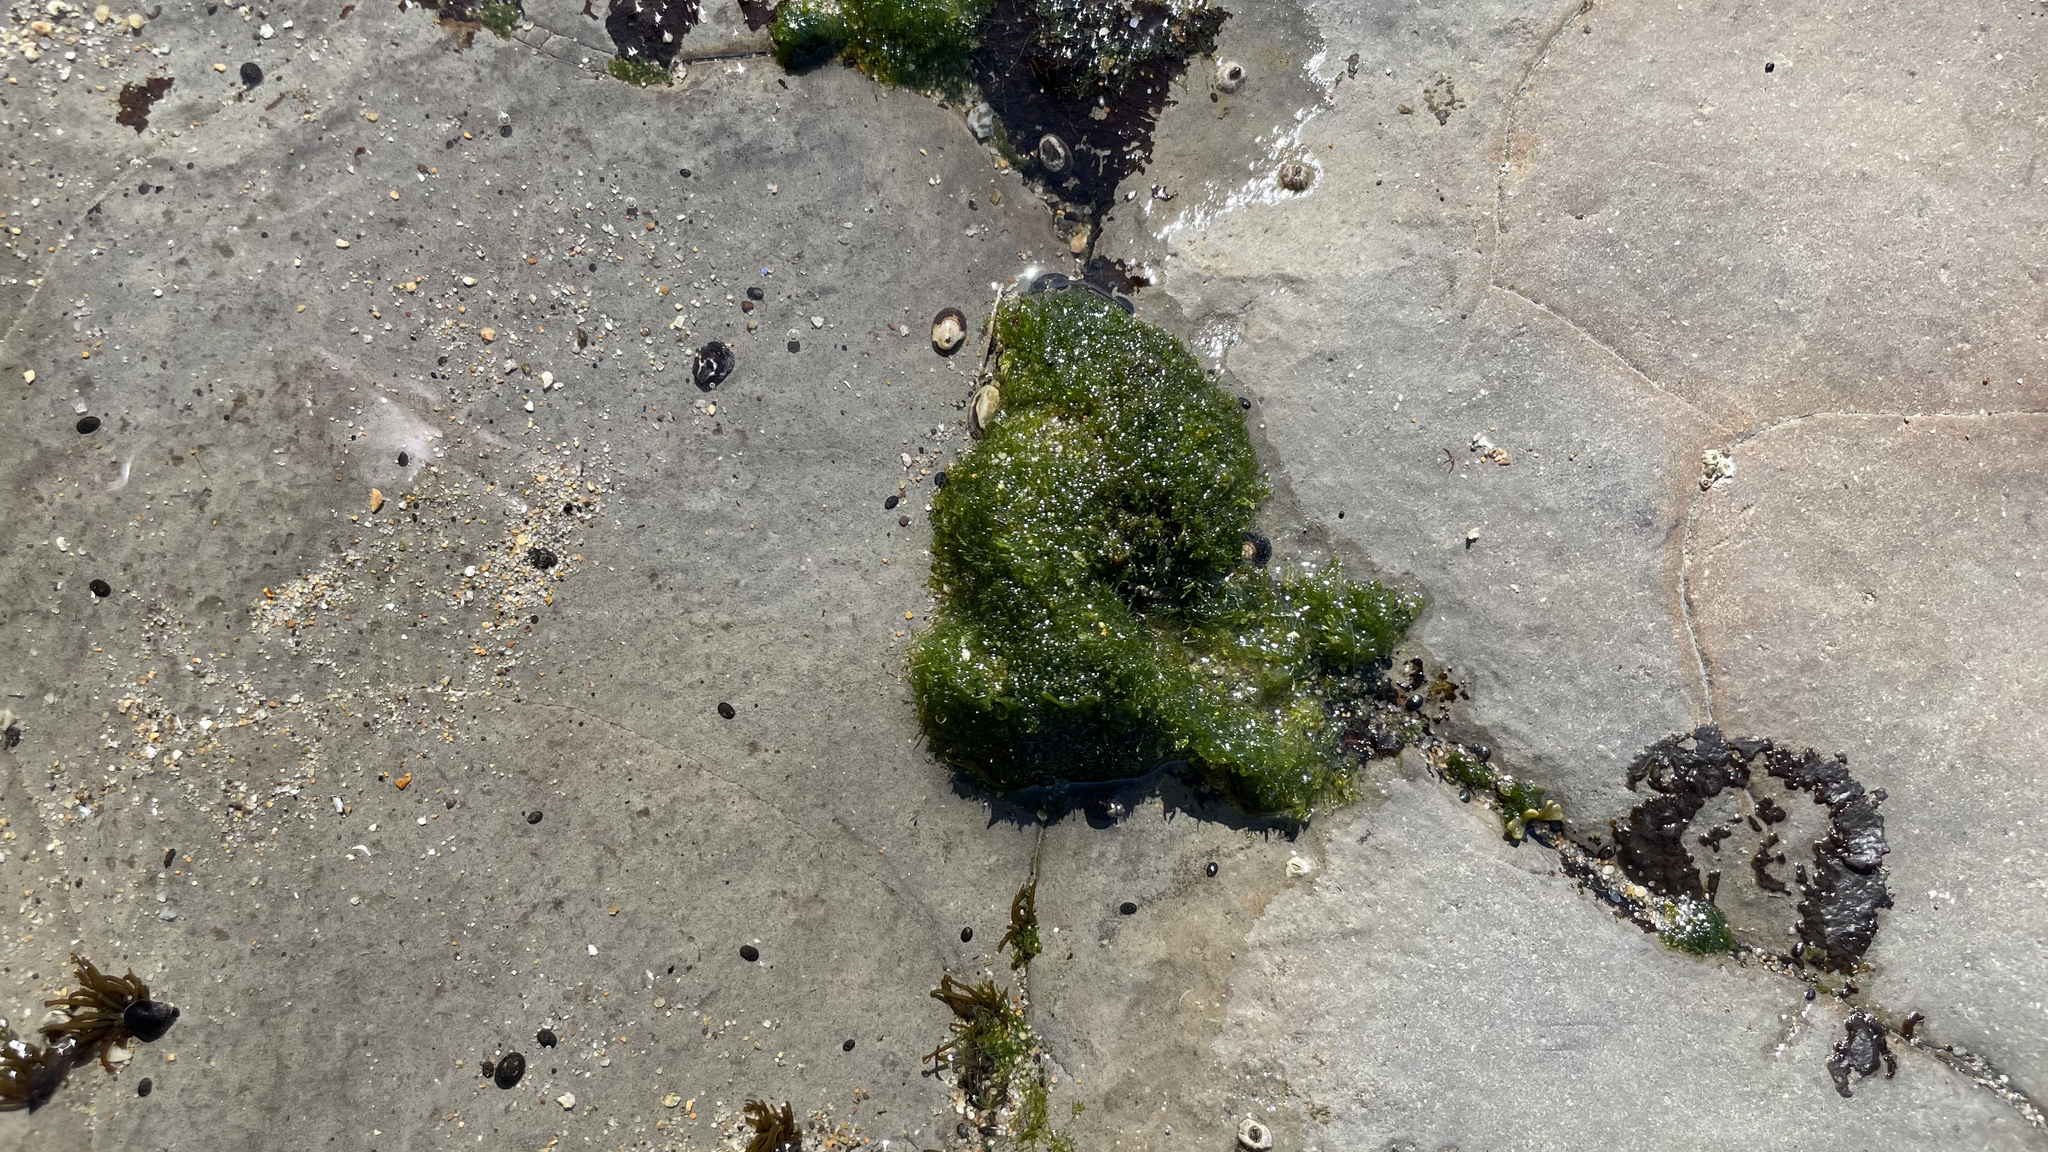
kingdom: Plantae
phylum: Chlorophyta
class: Ulvophyceae
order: Cladophorales
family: Cladophoraceae
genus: Cladophora
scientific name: Cladophora columbiana
